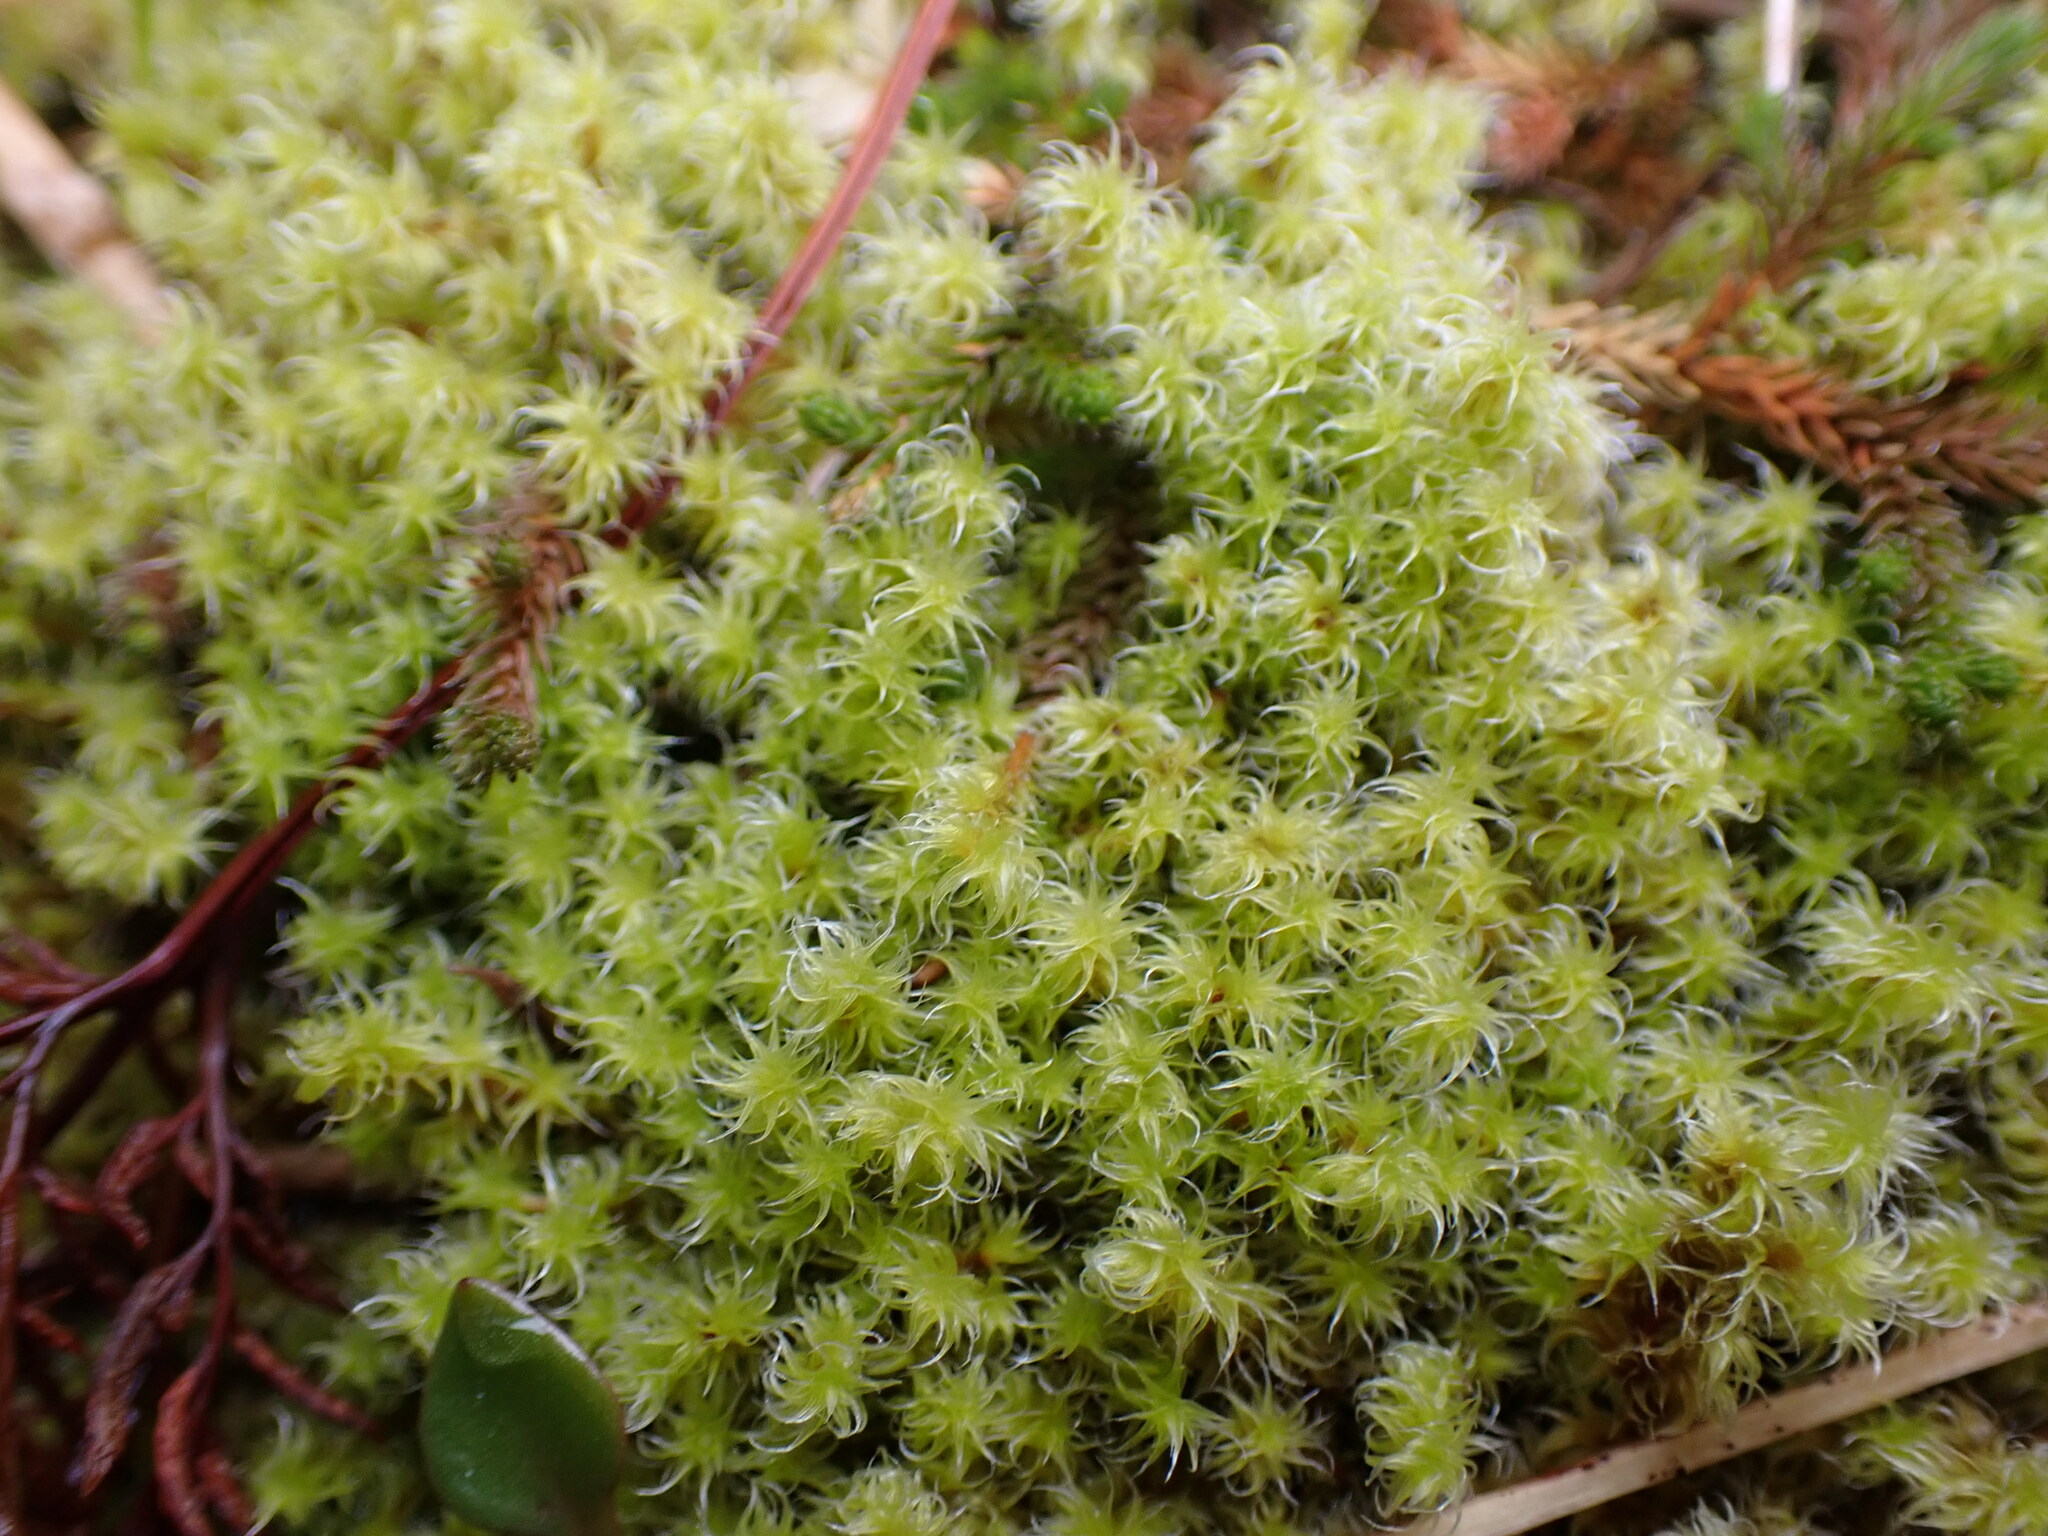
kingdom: Plantae
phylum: Bryophyta
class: Bryopsida
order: Grimmiales
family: Grimmiaceae
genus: Niphotrichum
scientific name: Niphotrichum elongatum
